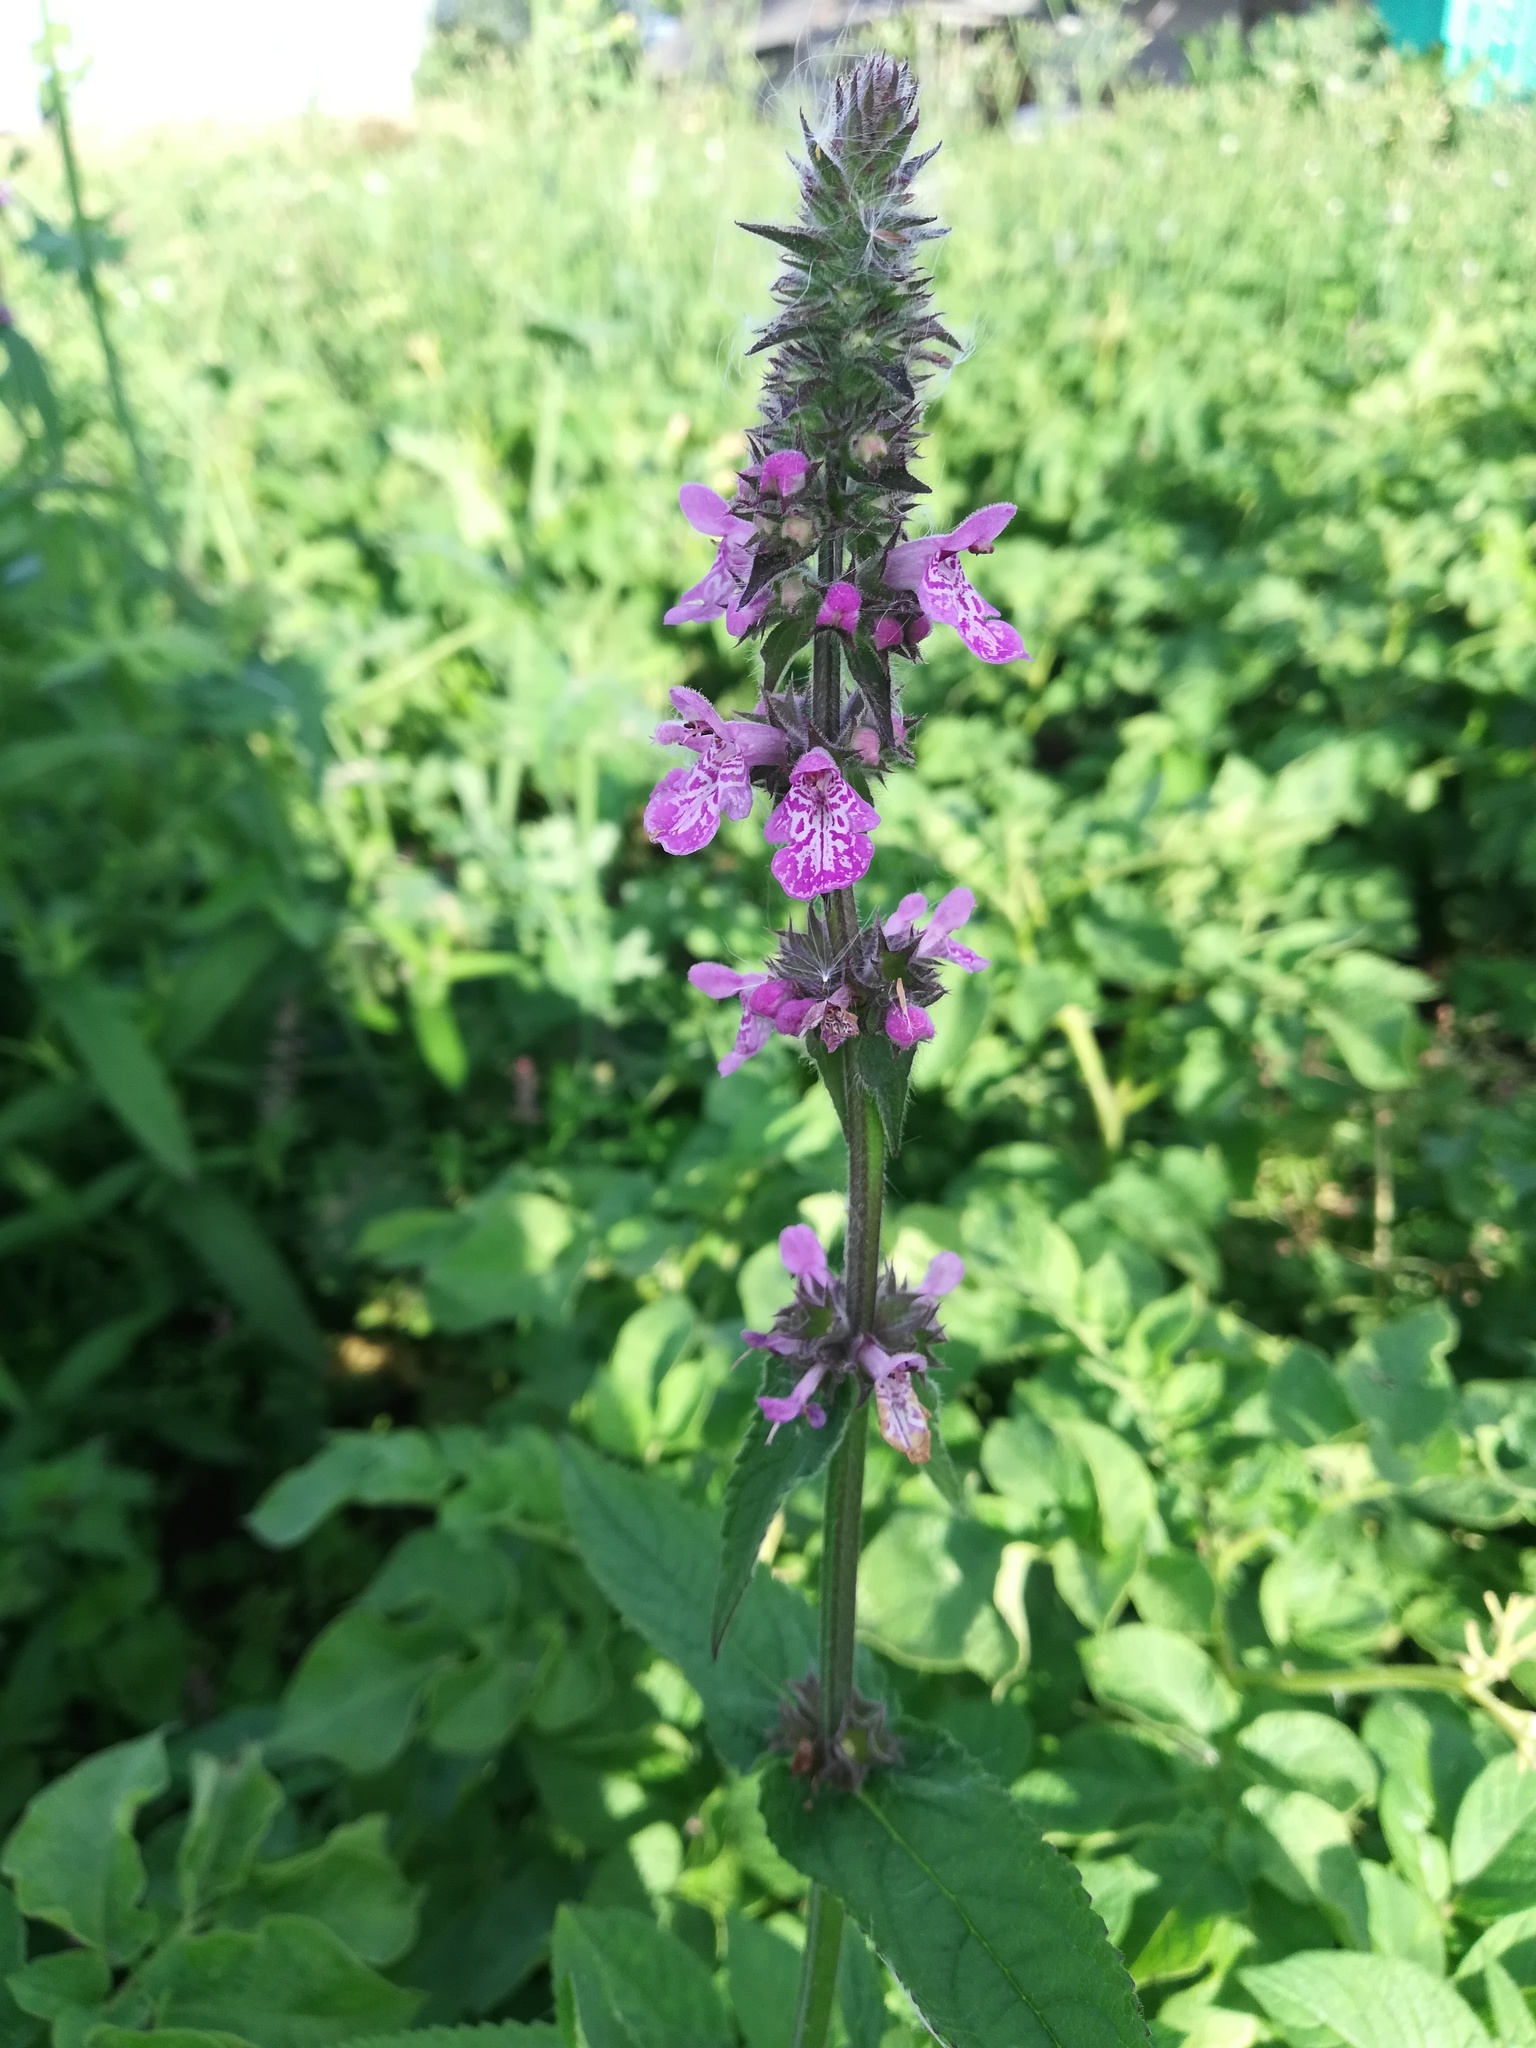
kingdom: Plantae
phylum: Tracheophyta
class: Magnoliopsida
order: Lamiales
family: Lamiaceae
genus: Stachys
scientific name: Stachys palustris
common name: Marsh woundwort
